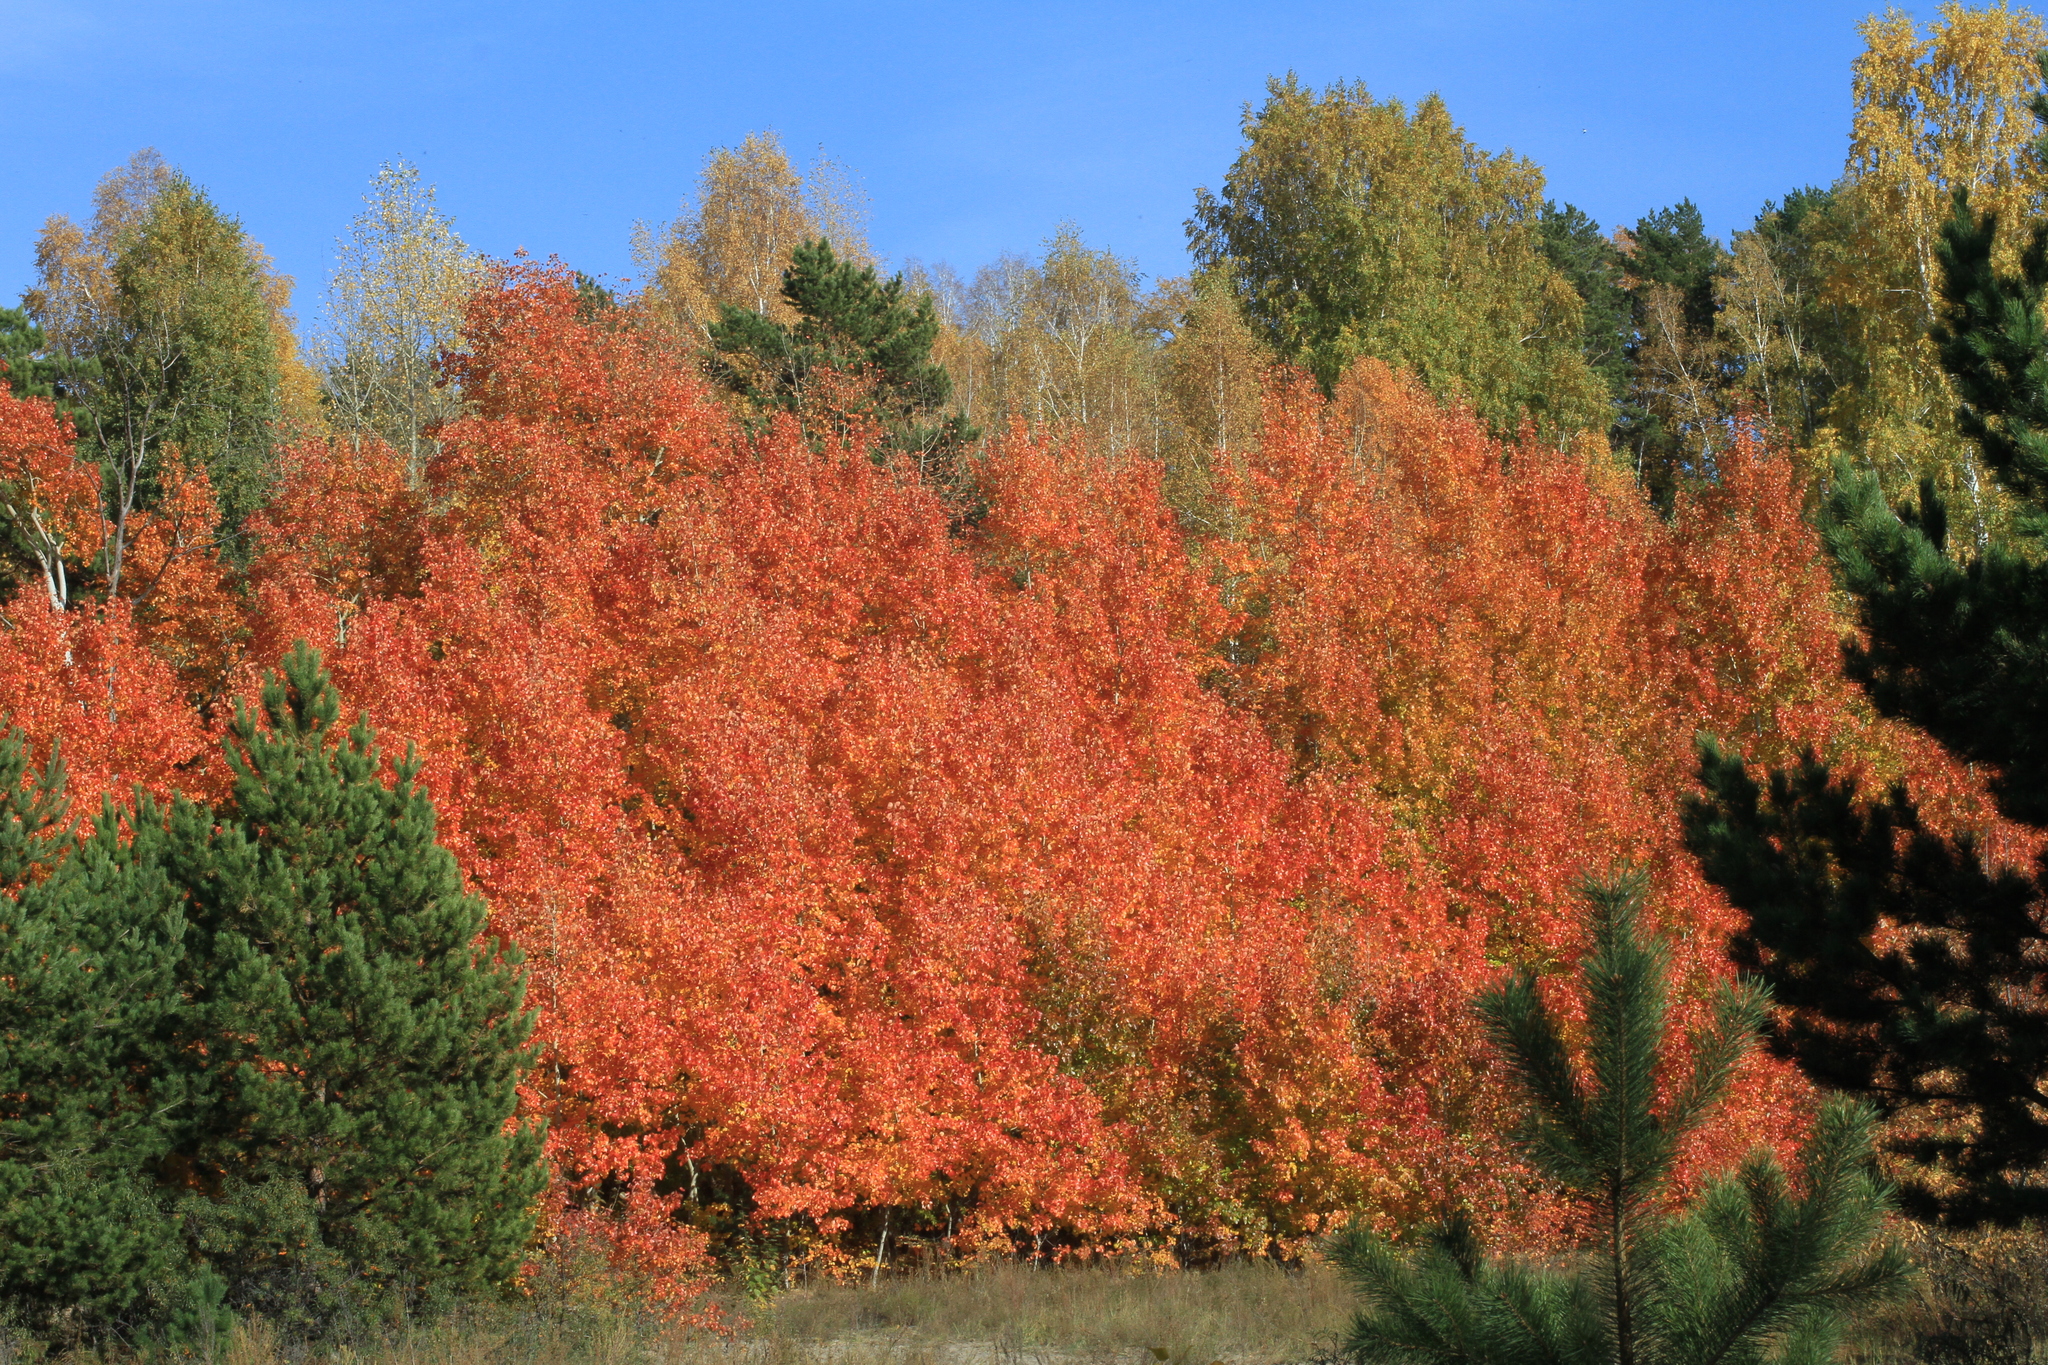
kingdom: Plantae
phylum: Tracheophyta
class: Magnoliopsida
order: Malpighiales
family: Salicaceae
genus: Populus
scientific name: Populus tremula
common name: European aspen
